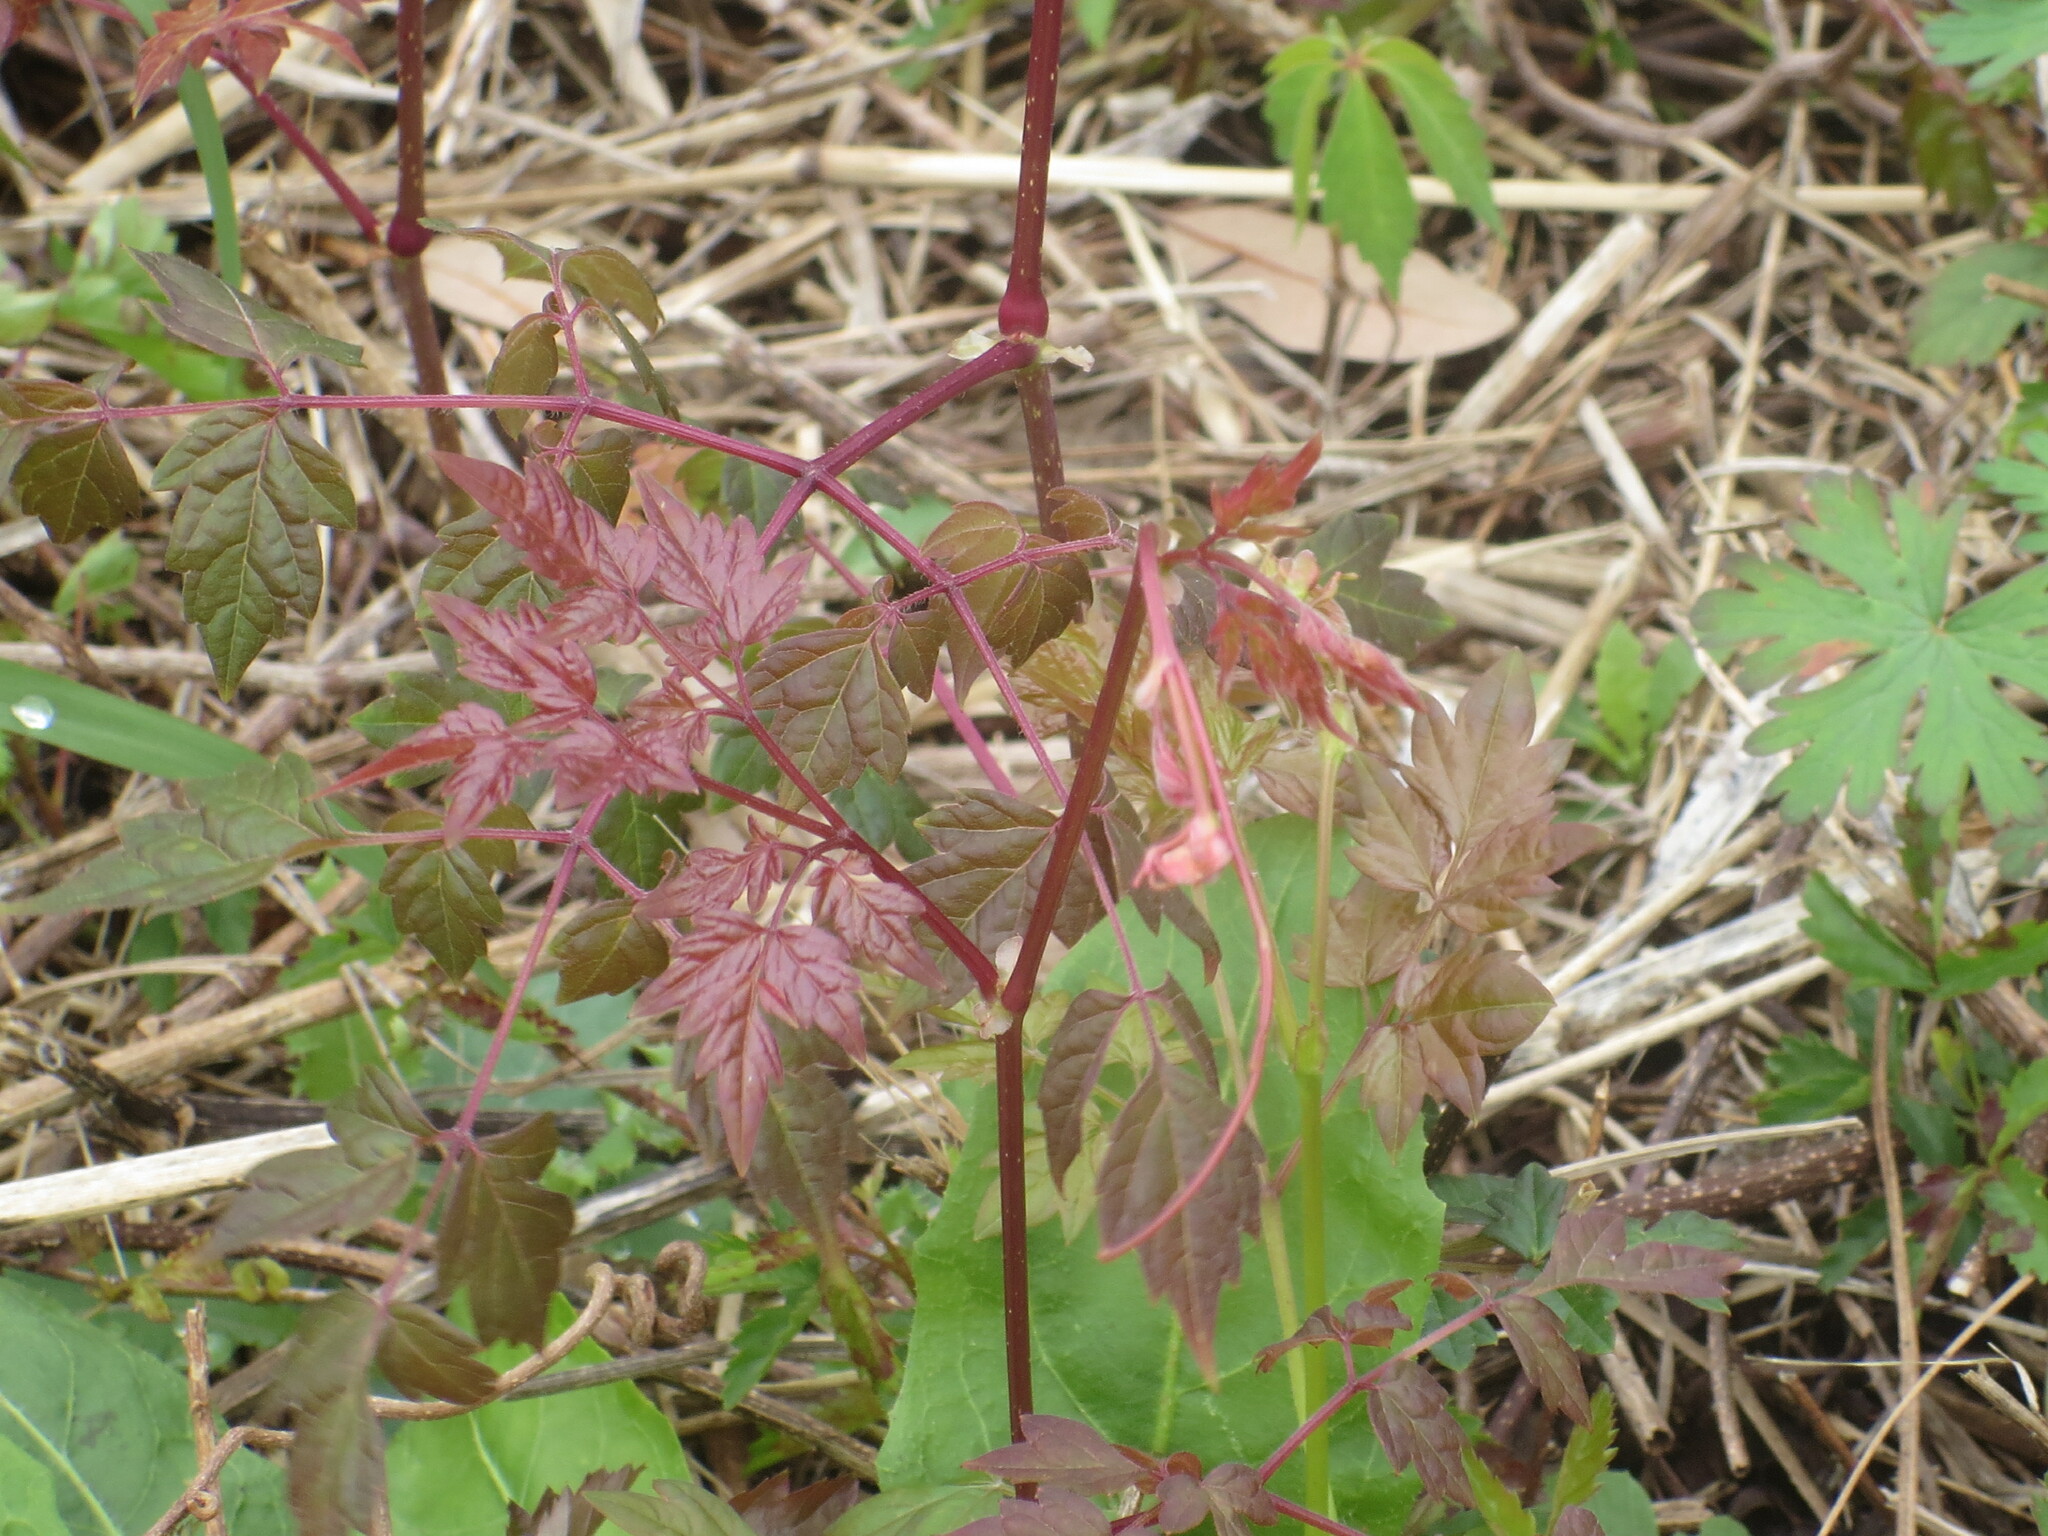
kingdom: Plantae
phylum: Tracheophyta
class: Magnoliopsida
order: Vitales
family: Vitaceae
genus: Nekemias
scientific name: Nekemias arborea
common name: Peppervine
